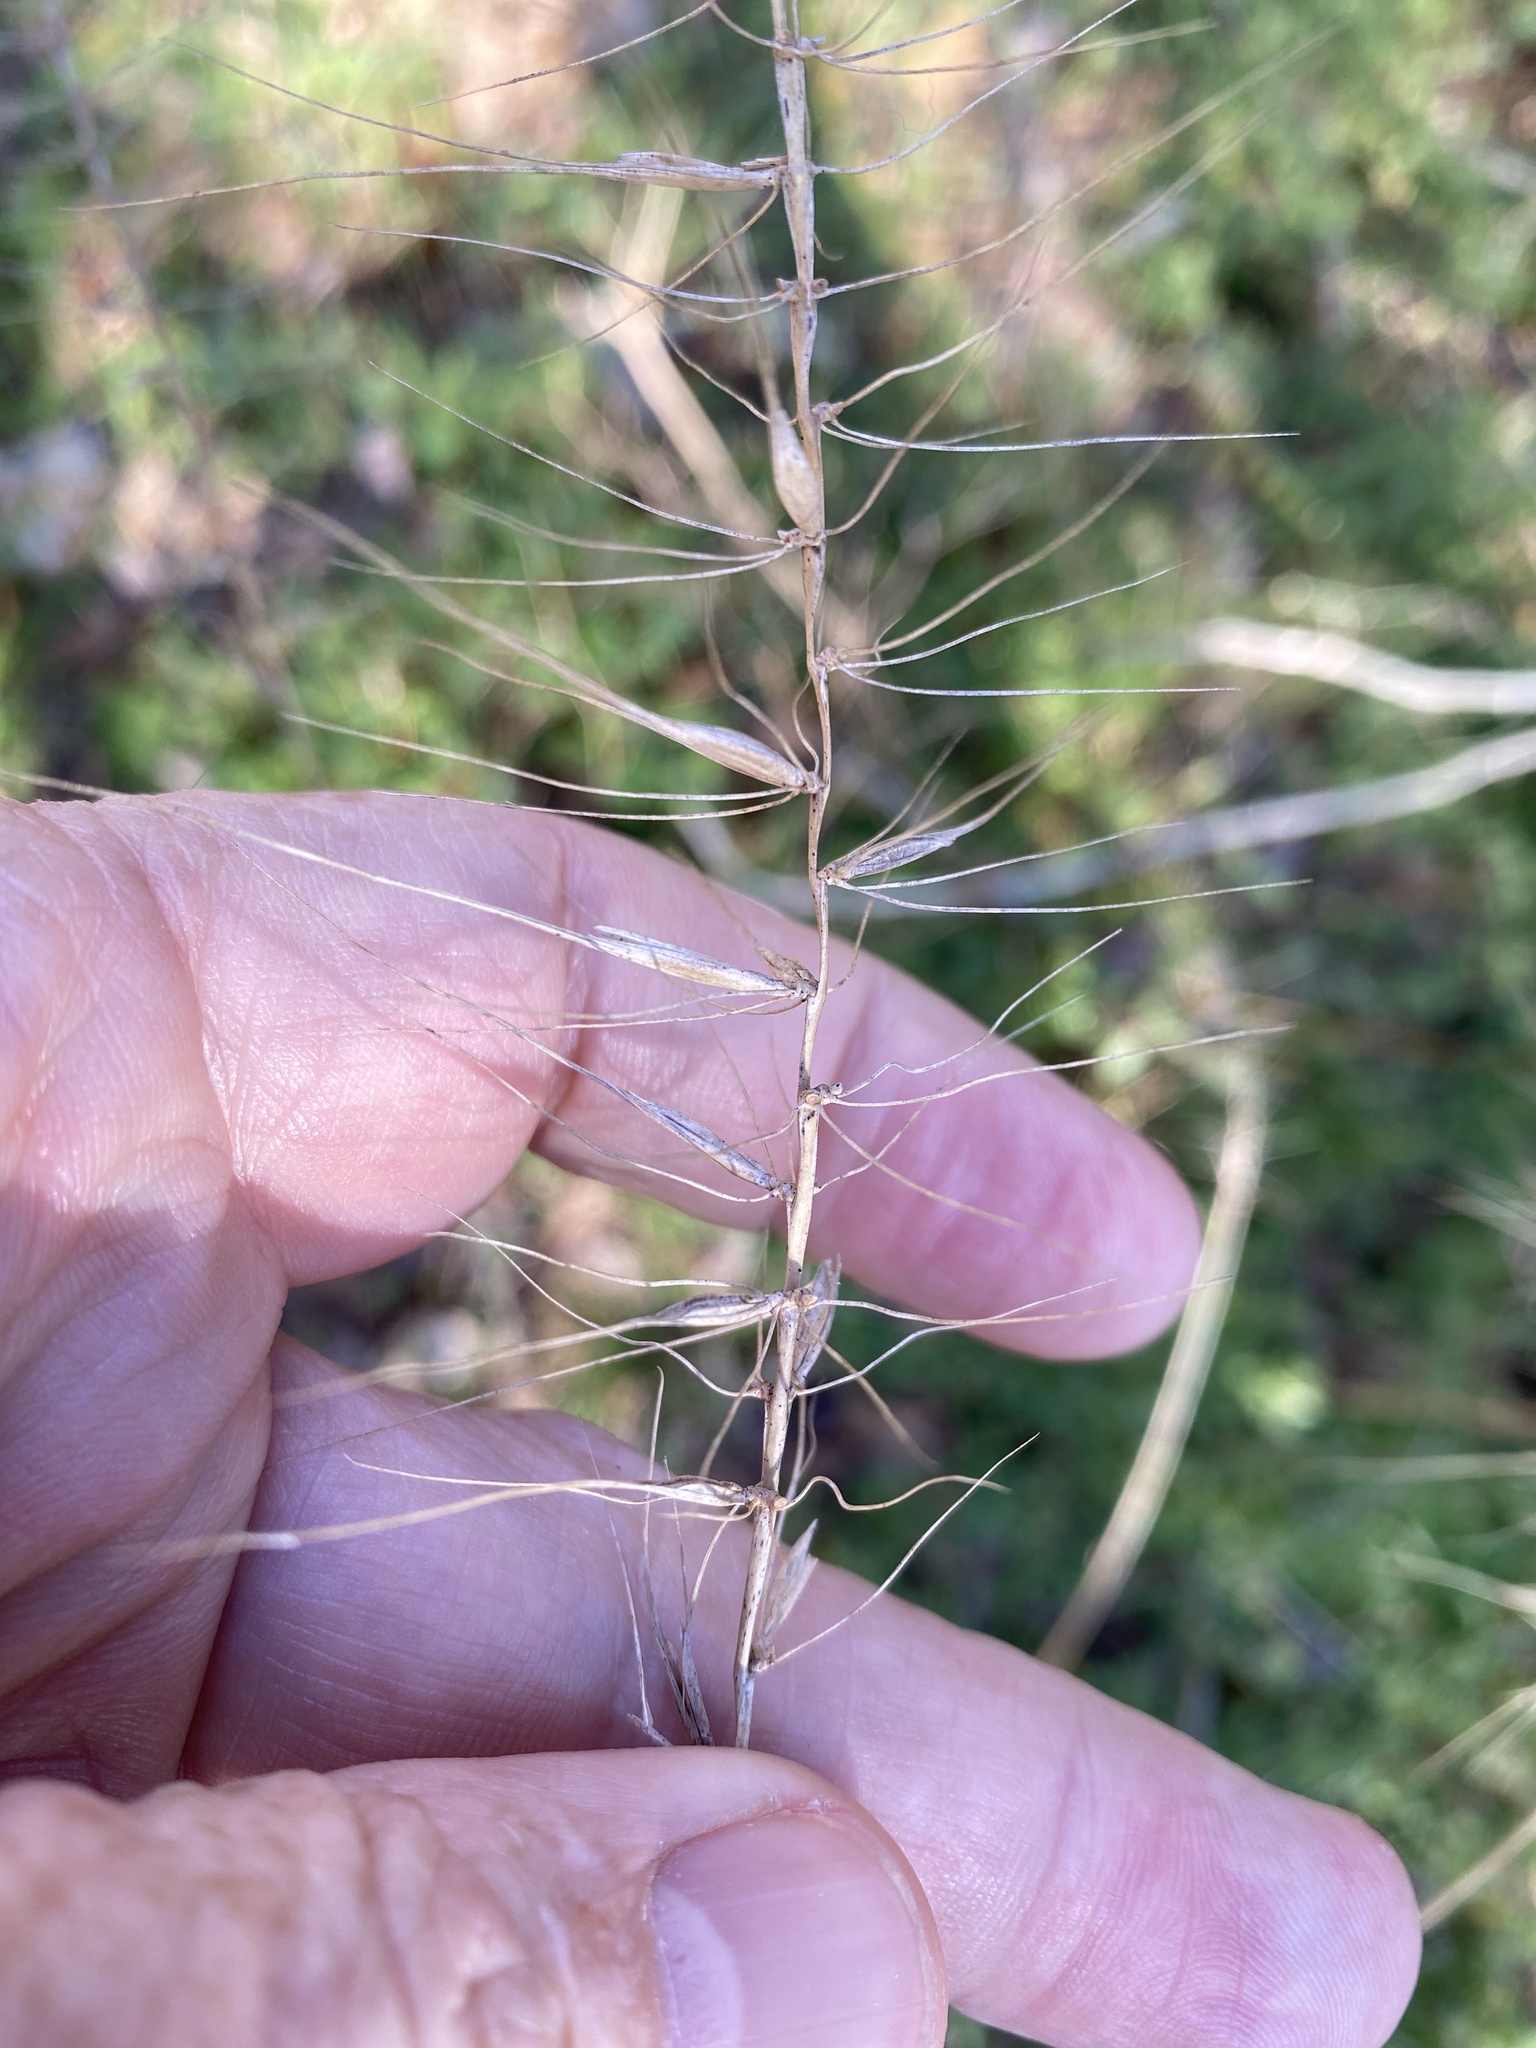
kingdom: Plantae
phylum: Tracheophyta
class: Liliopsida
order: Poales
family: Poaceae
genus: Elymus
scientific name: Elymus hystrix
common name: Bottlebrush grass
